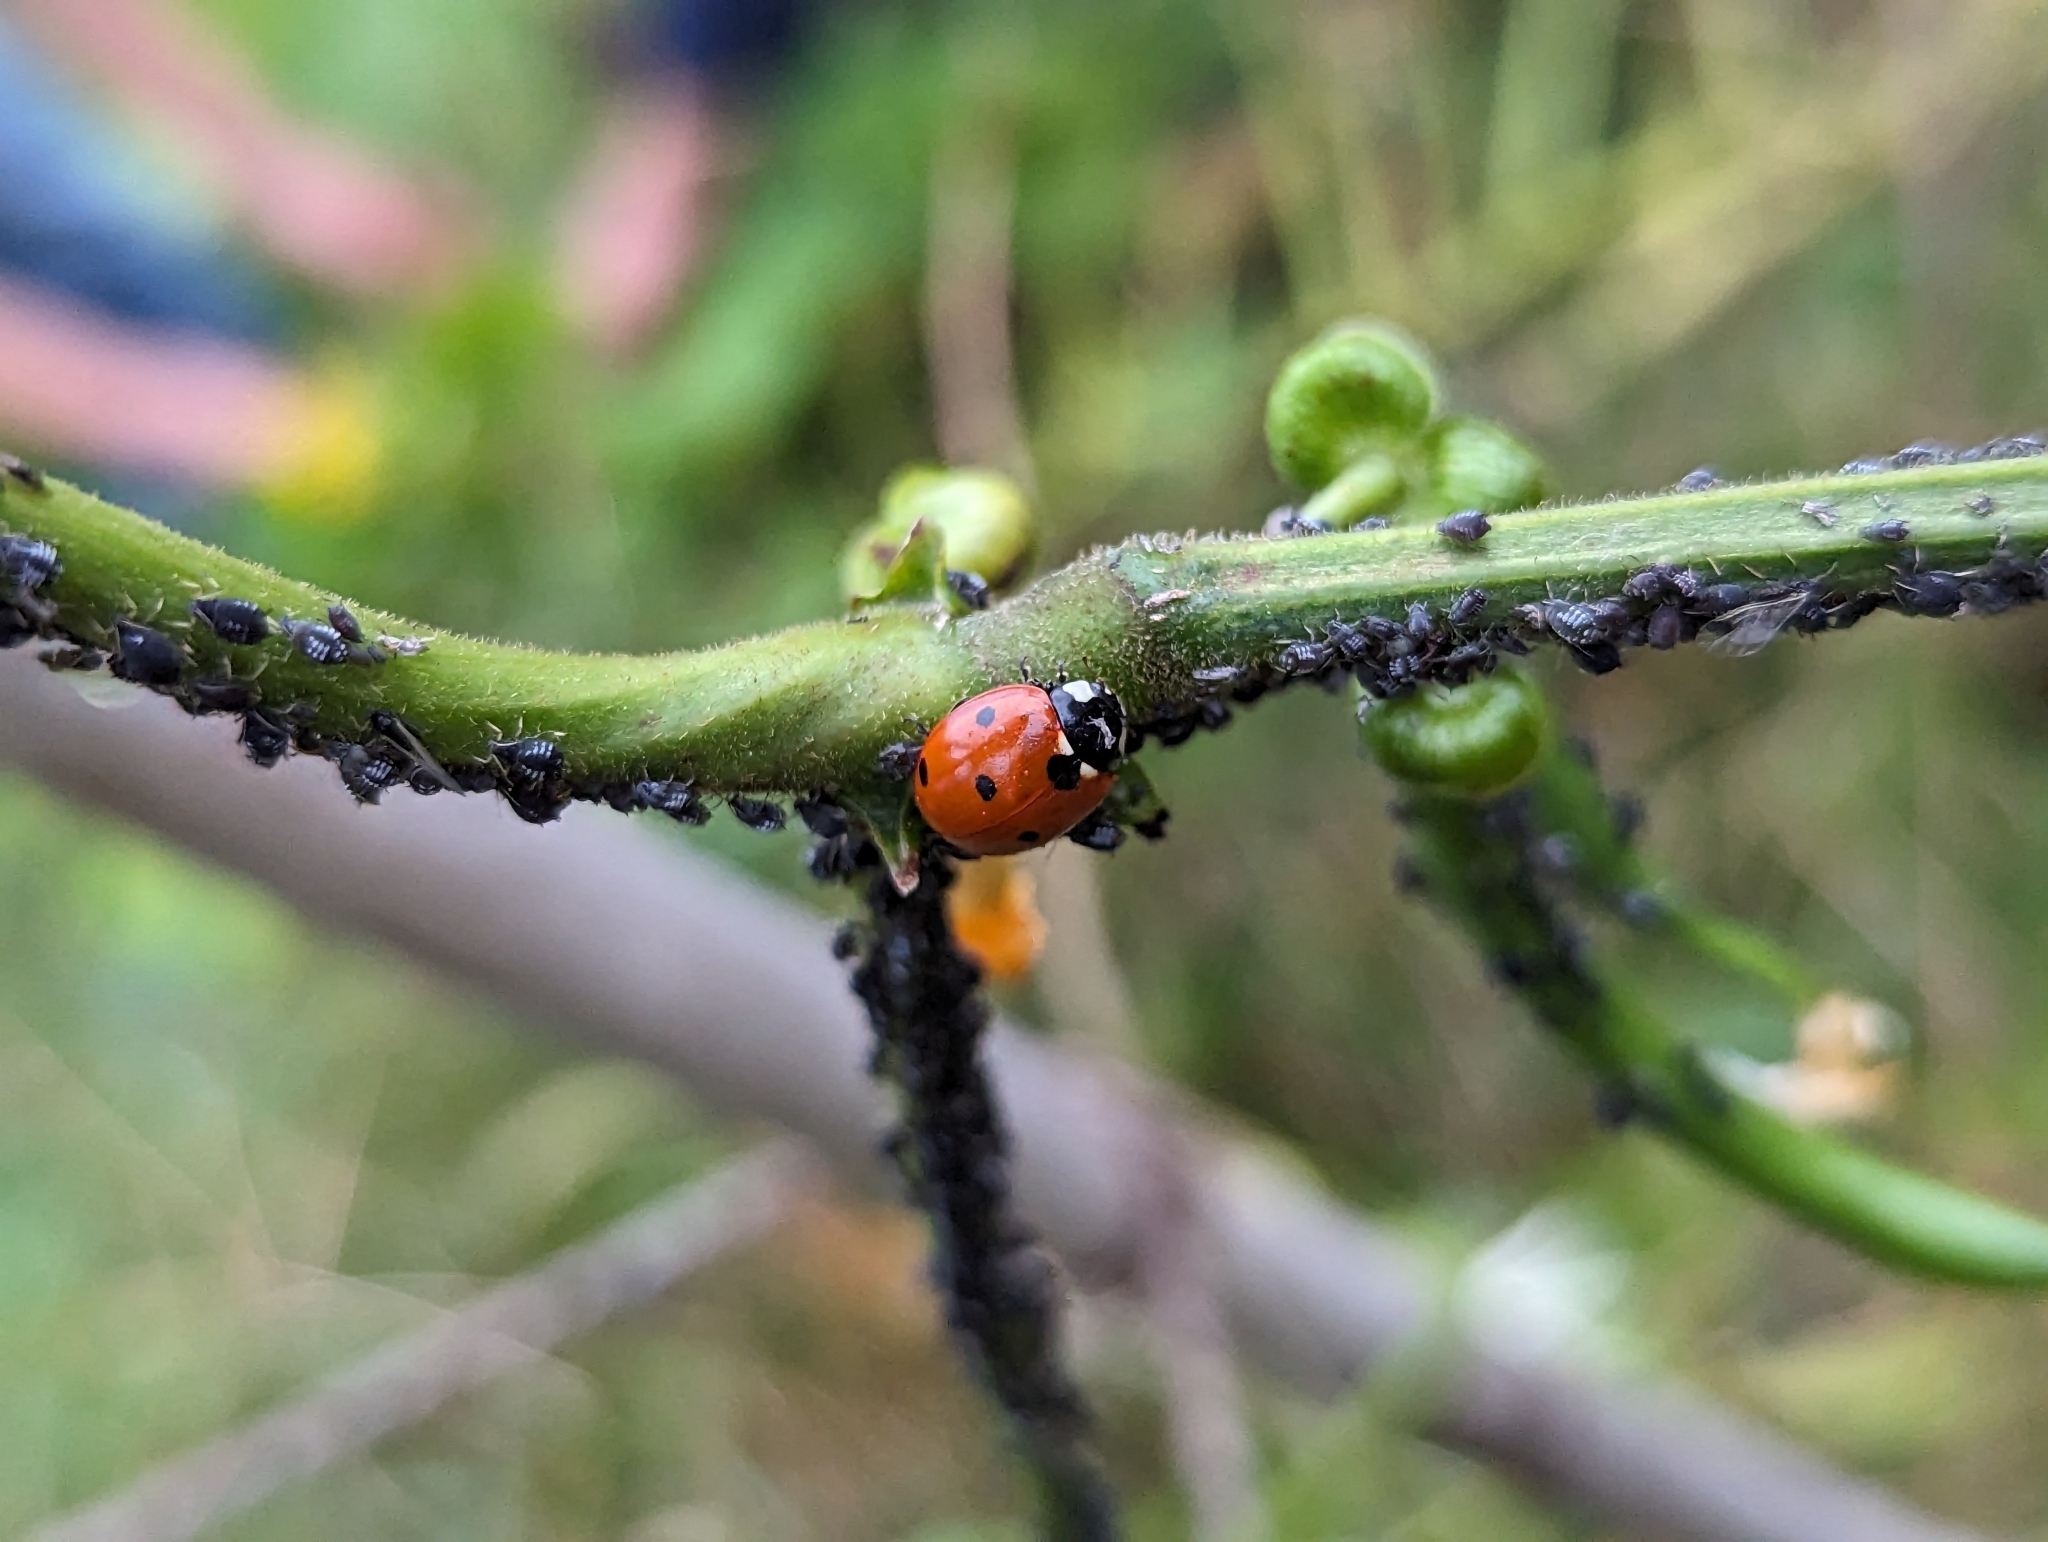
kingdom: Animalia
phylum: Arthropoda
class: Insecta
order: Coleoptera
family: Coccinellidae
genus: Coccinella
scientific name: Coccinella septempunctata
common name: Sevenspotted lady beetle
